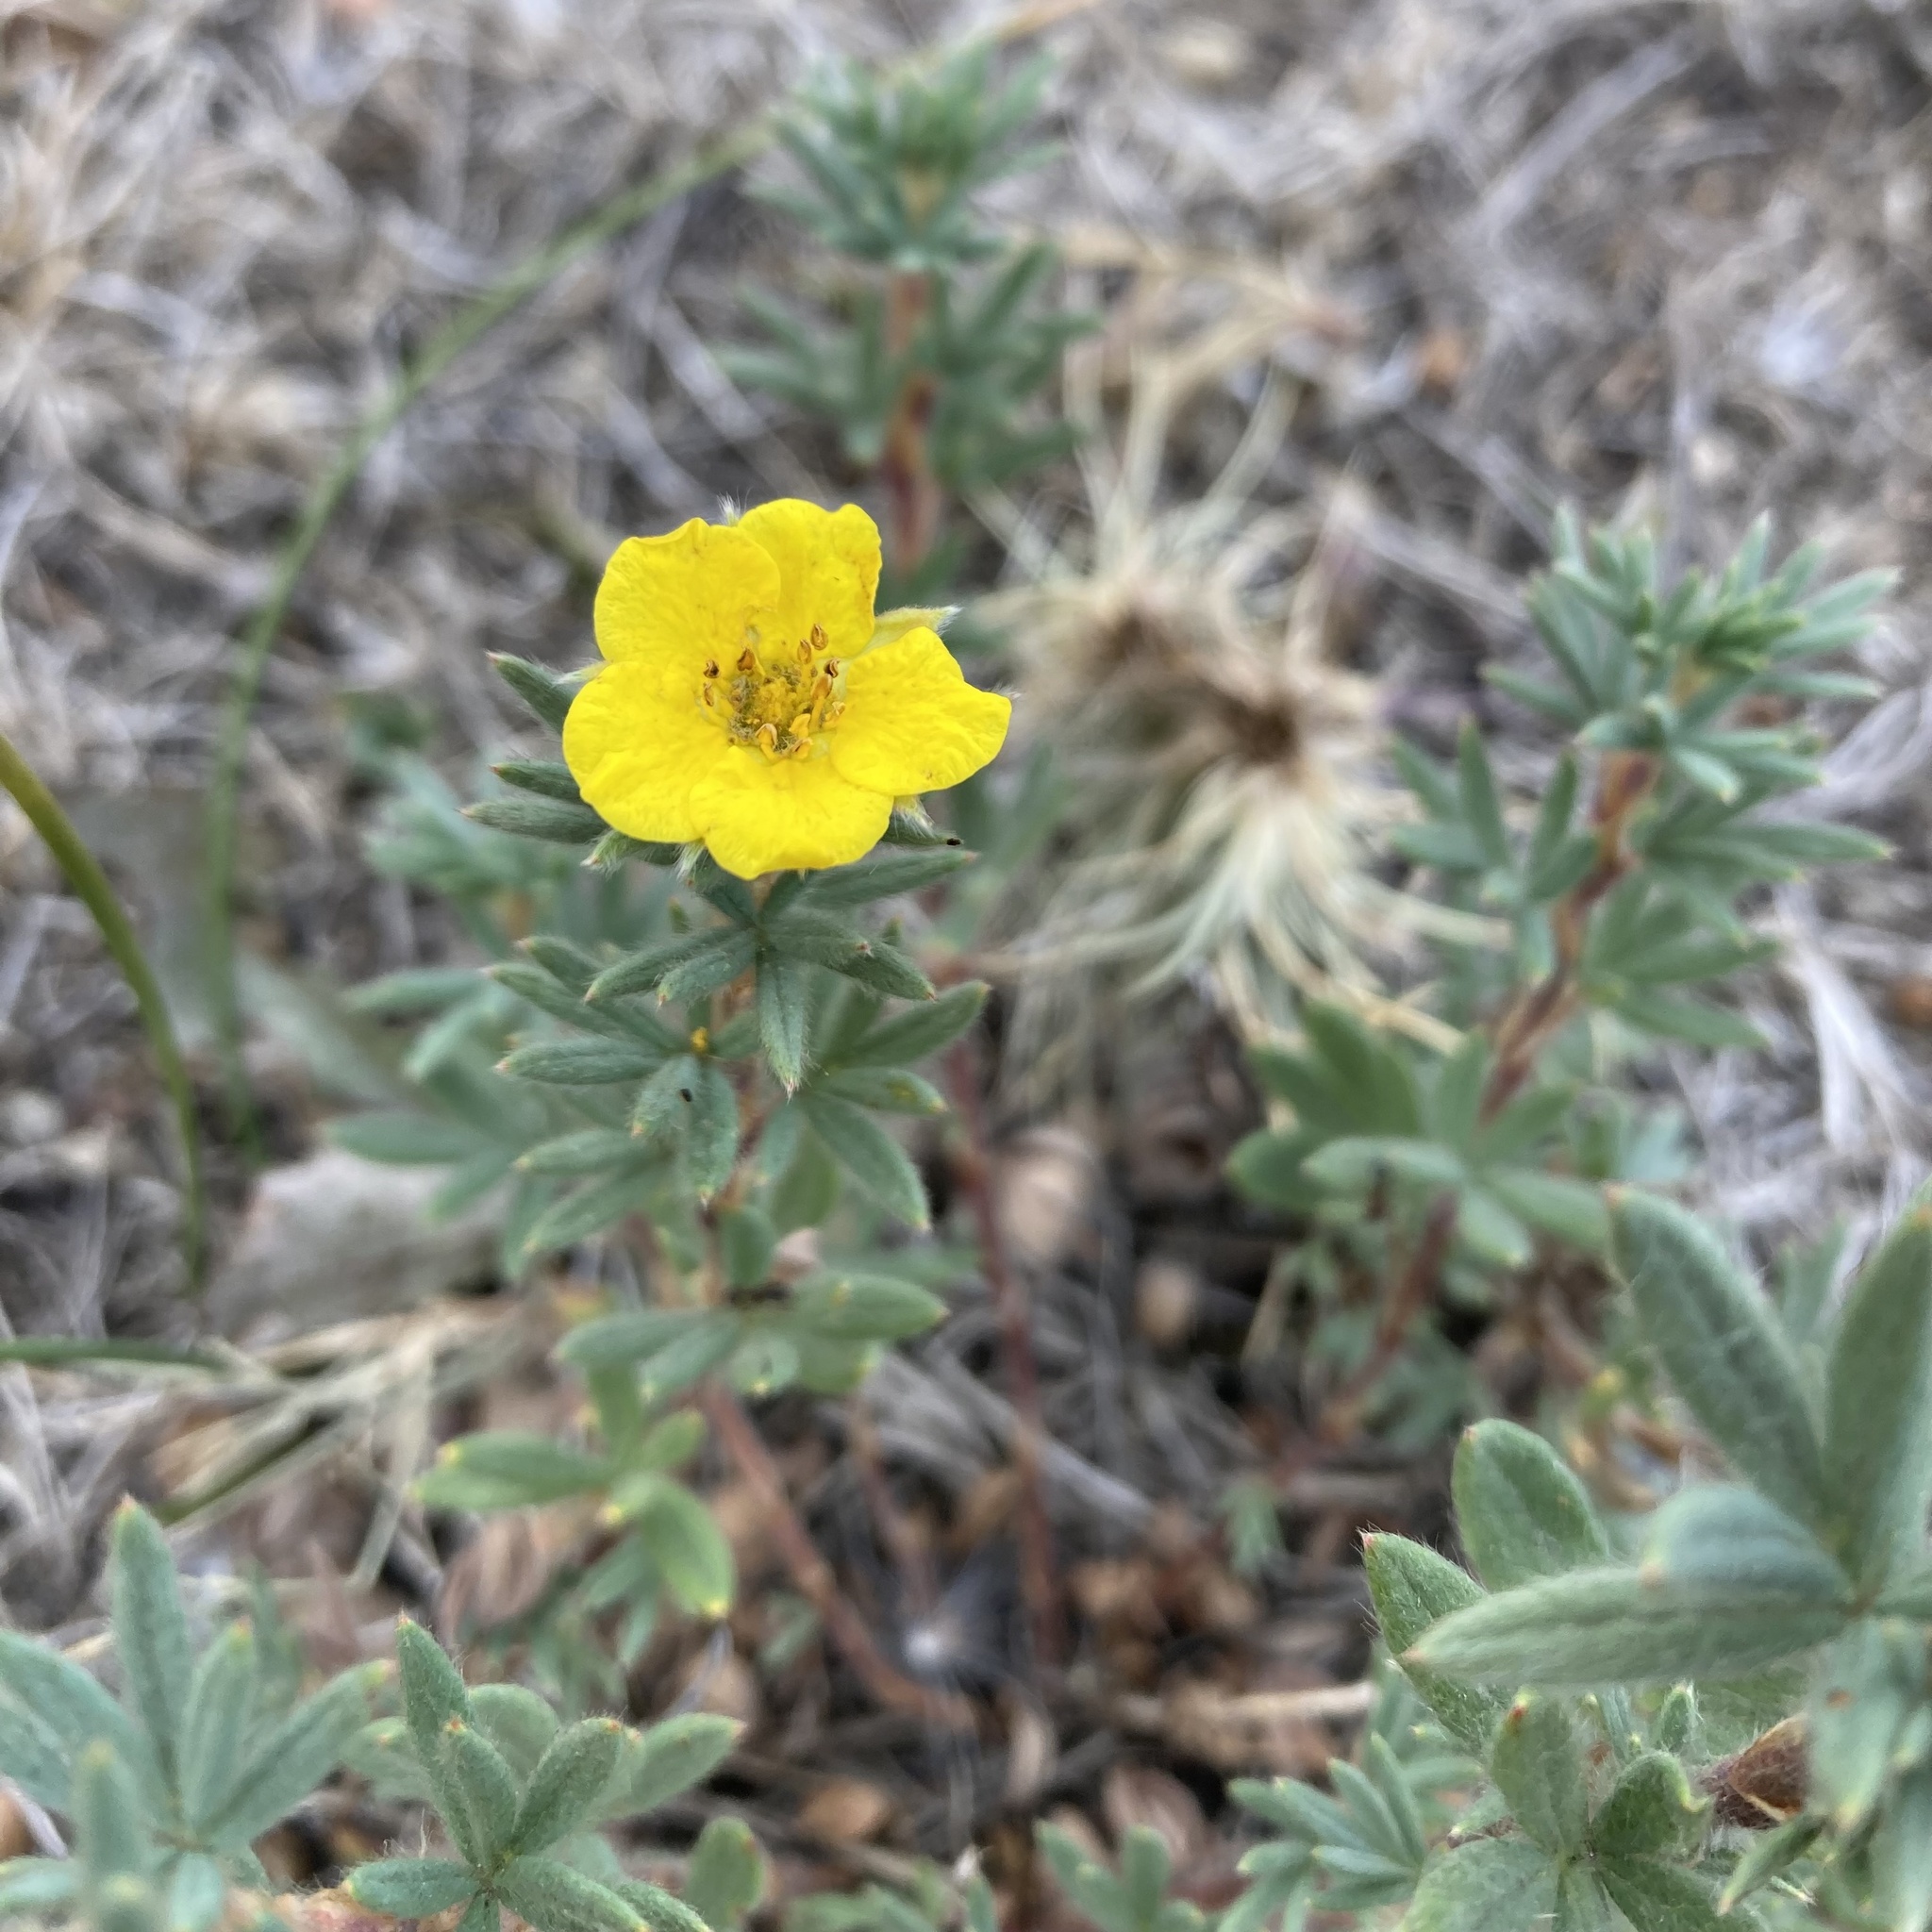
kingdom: Plantae
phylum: Tracheophyta
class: Magnoliopsida
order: Rosales
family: Rosaceae
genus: Dasiphora
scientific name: Dasiphora fruticosa
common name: Shrubby cinquefoil
